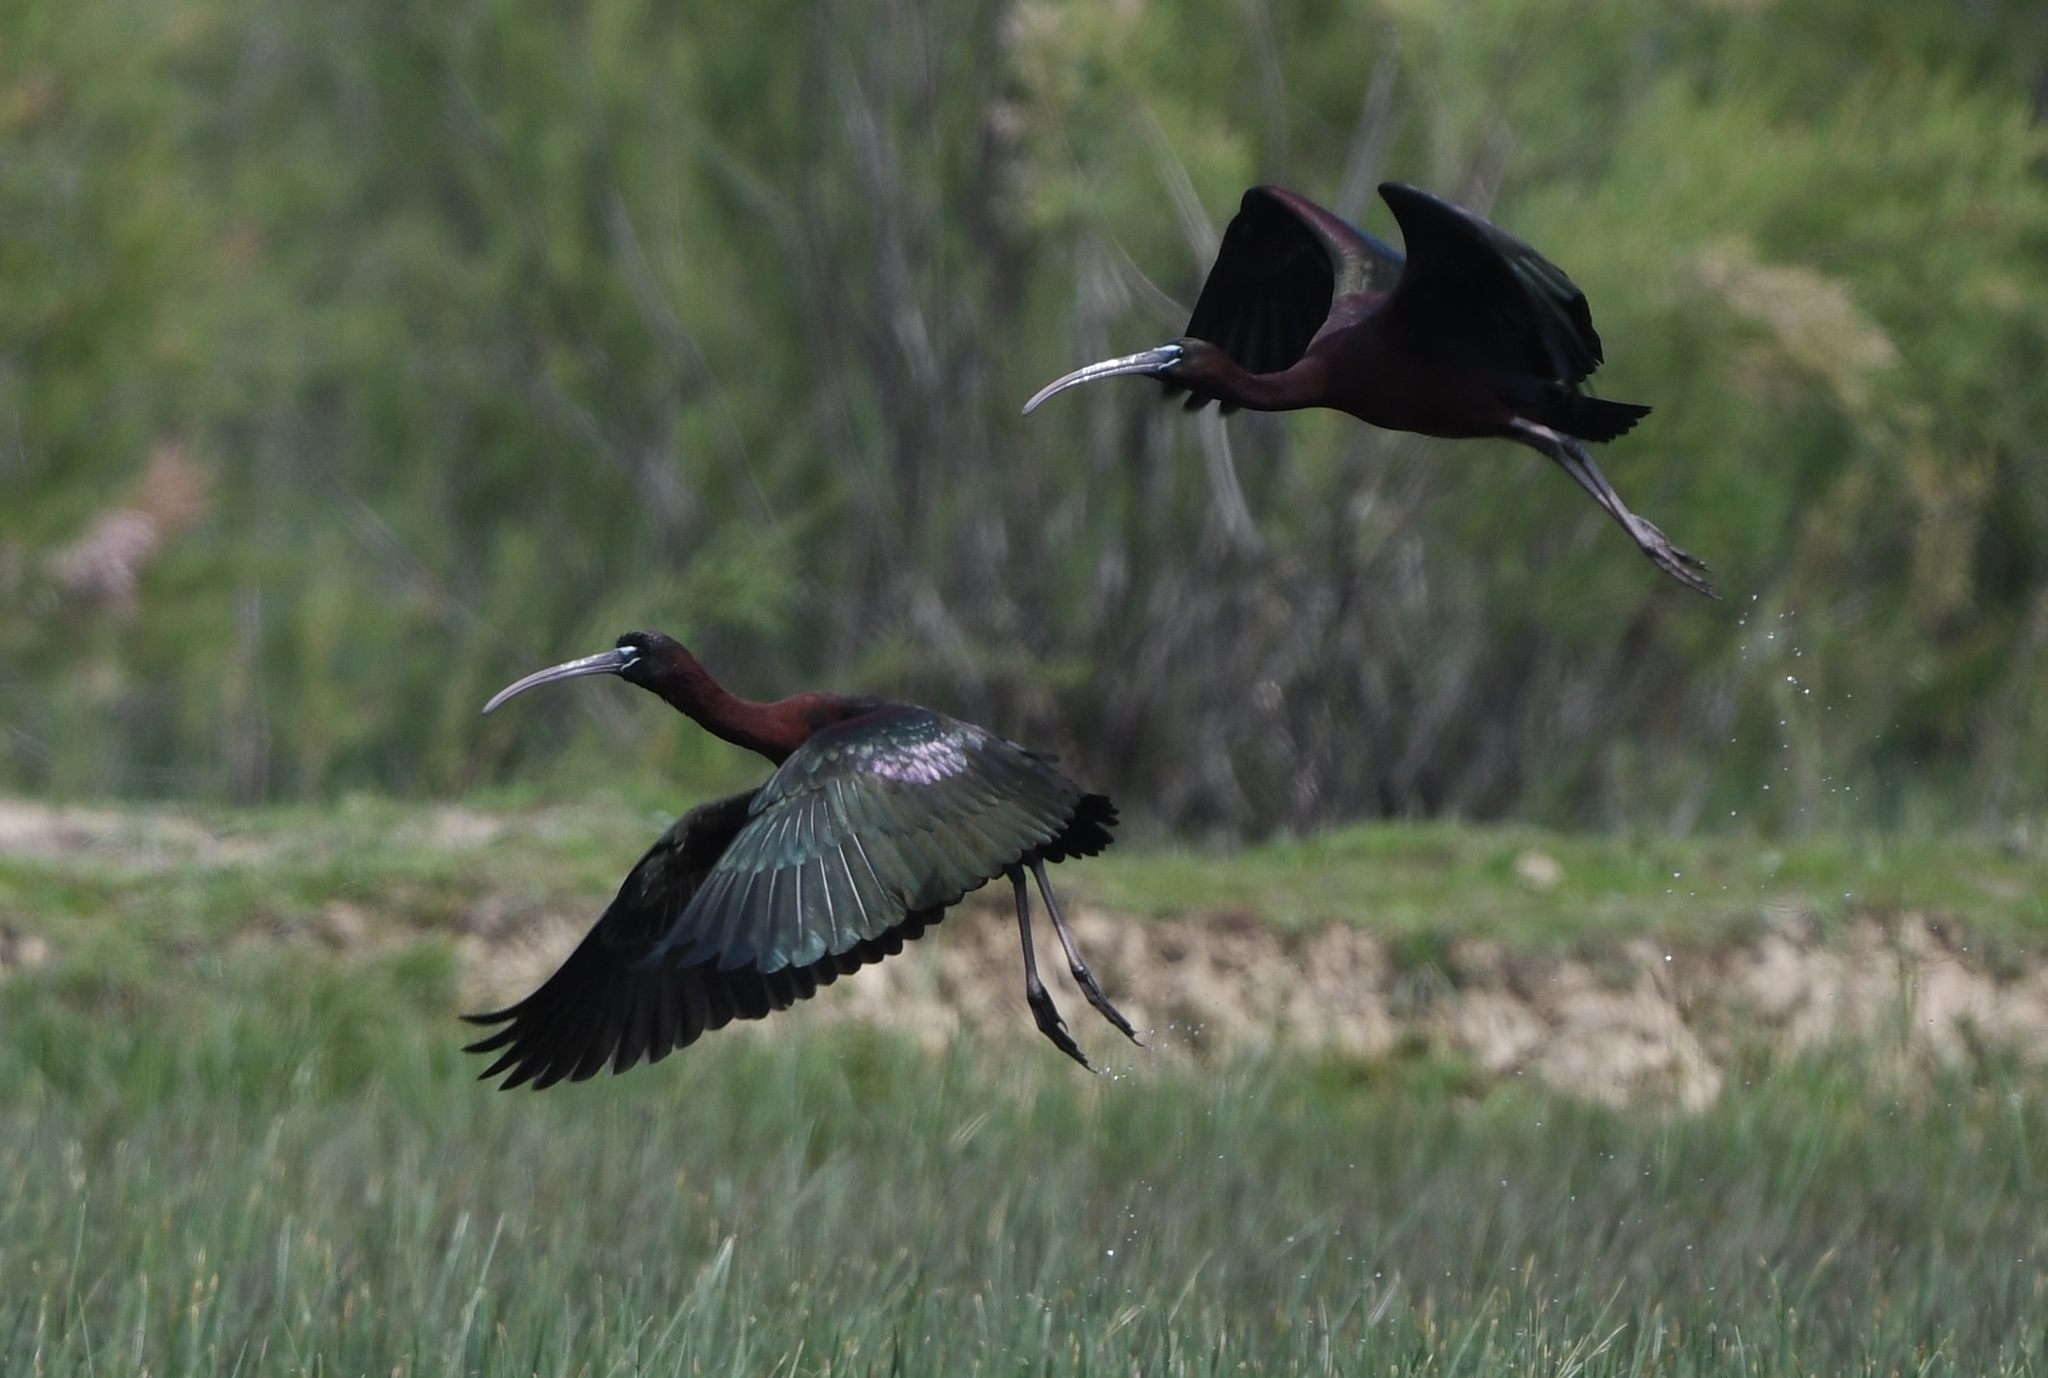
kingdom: Animalia
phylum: Chordata
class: Aves
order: Pelecaniformes
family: Threskiornithidae
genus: Plegadis
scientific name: Plegadis falcinellus
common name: Glossy ibis
